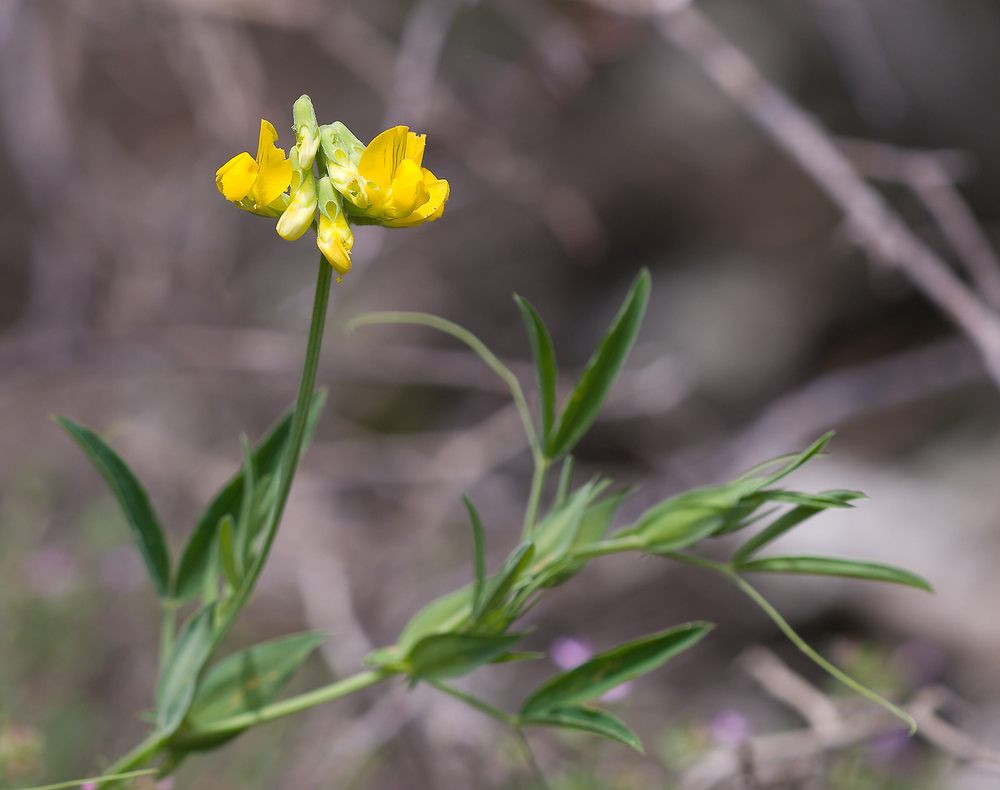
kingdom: Plantae
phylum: Tracheophyta
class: Magnoliopsida
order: Fabales
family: Fabaceae
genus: Lathyrus
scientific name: Lathyrus pratensis
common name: Meadow vetchling
